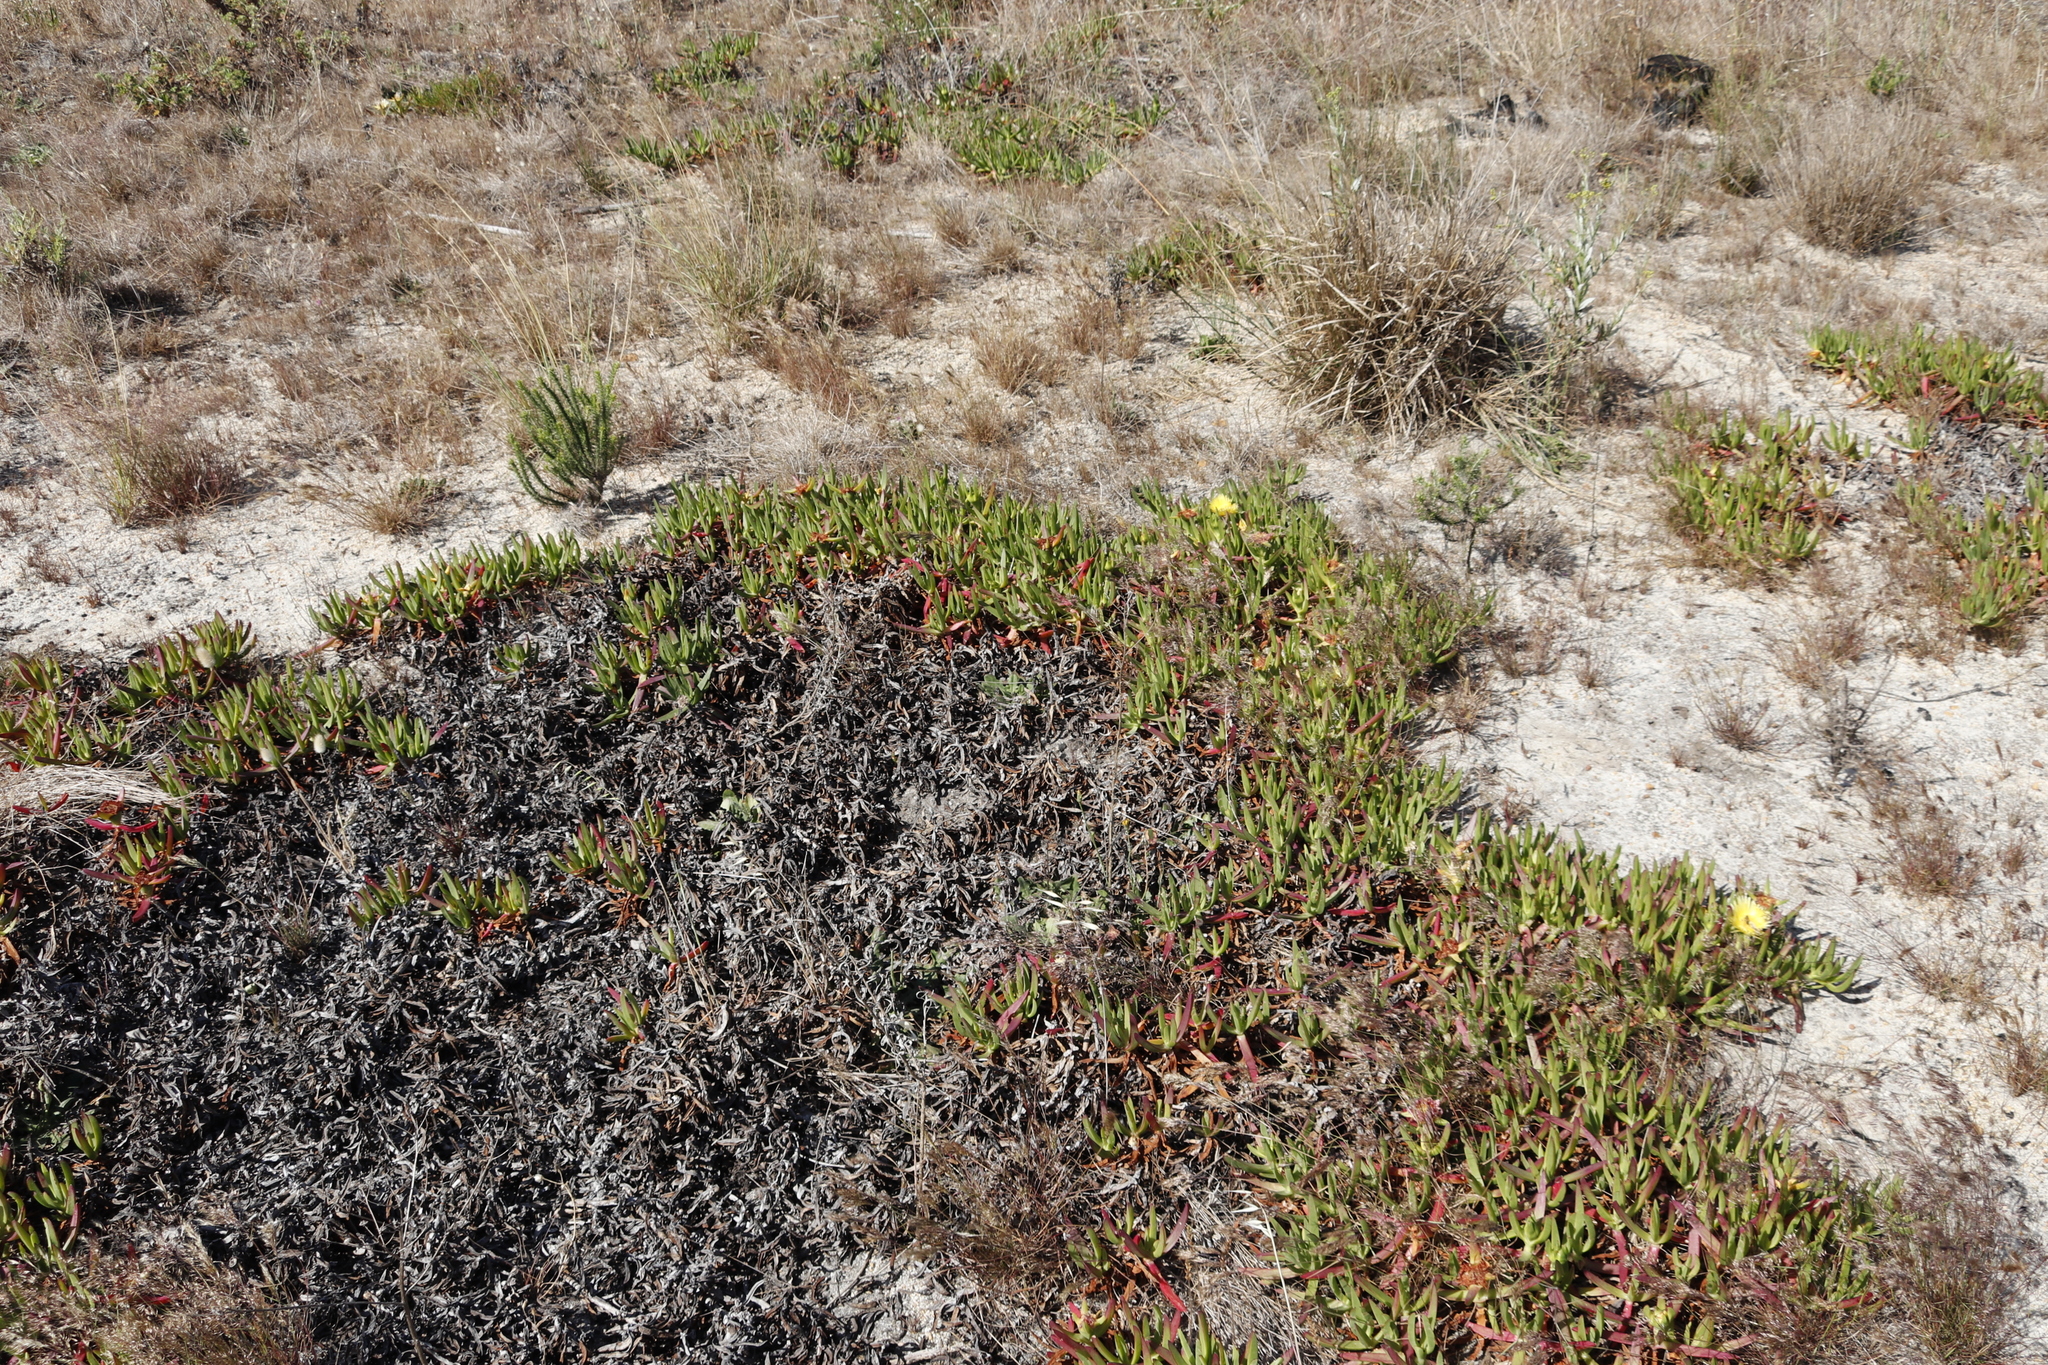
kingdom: Plantae
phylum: Tracheophyta
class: Magnoliopsida
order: Caryophyllales
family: Aizoaceae
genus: Carpobrotus
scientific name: Carpobrotus edulis
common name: Hottentot-fig
